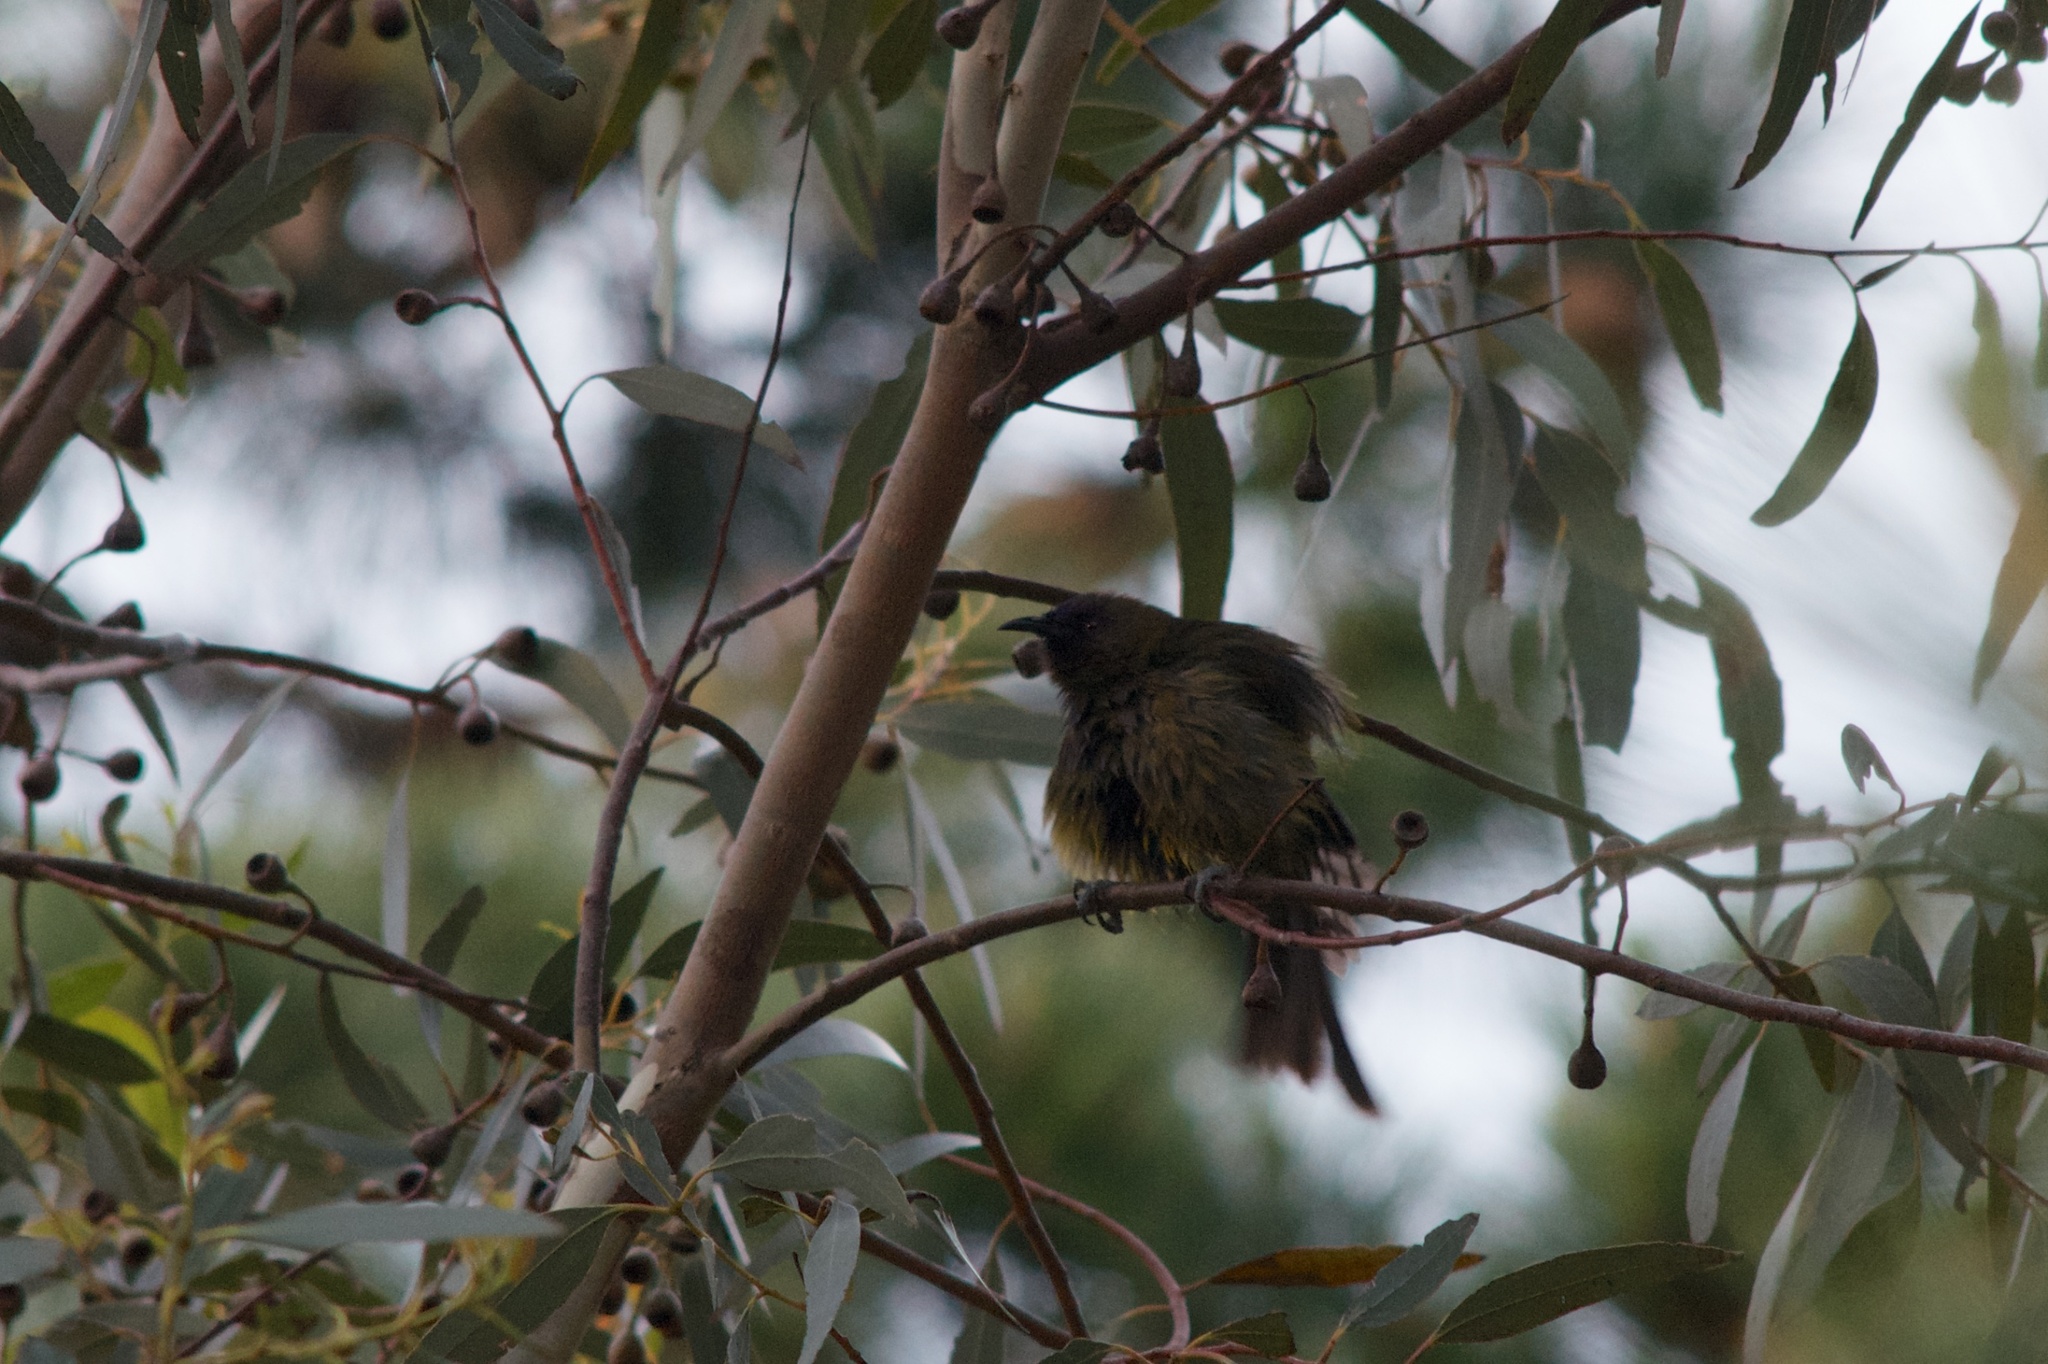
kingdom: Animalia
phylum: Chordata
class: Aves
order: Passeriformes
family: Meliphagidae
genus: Anthornis
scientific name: Anthornis melanura
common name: New zealand bellbird
